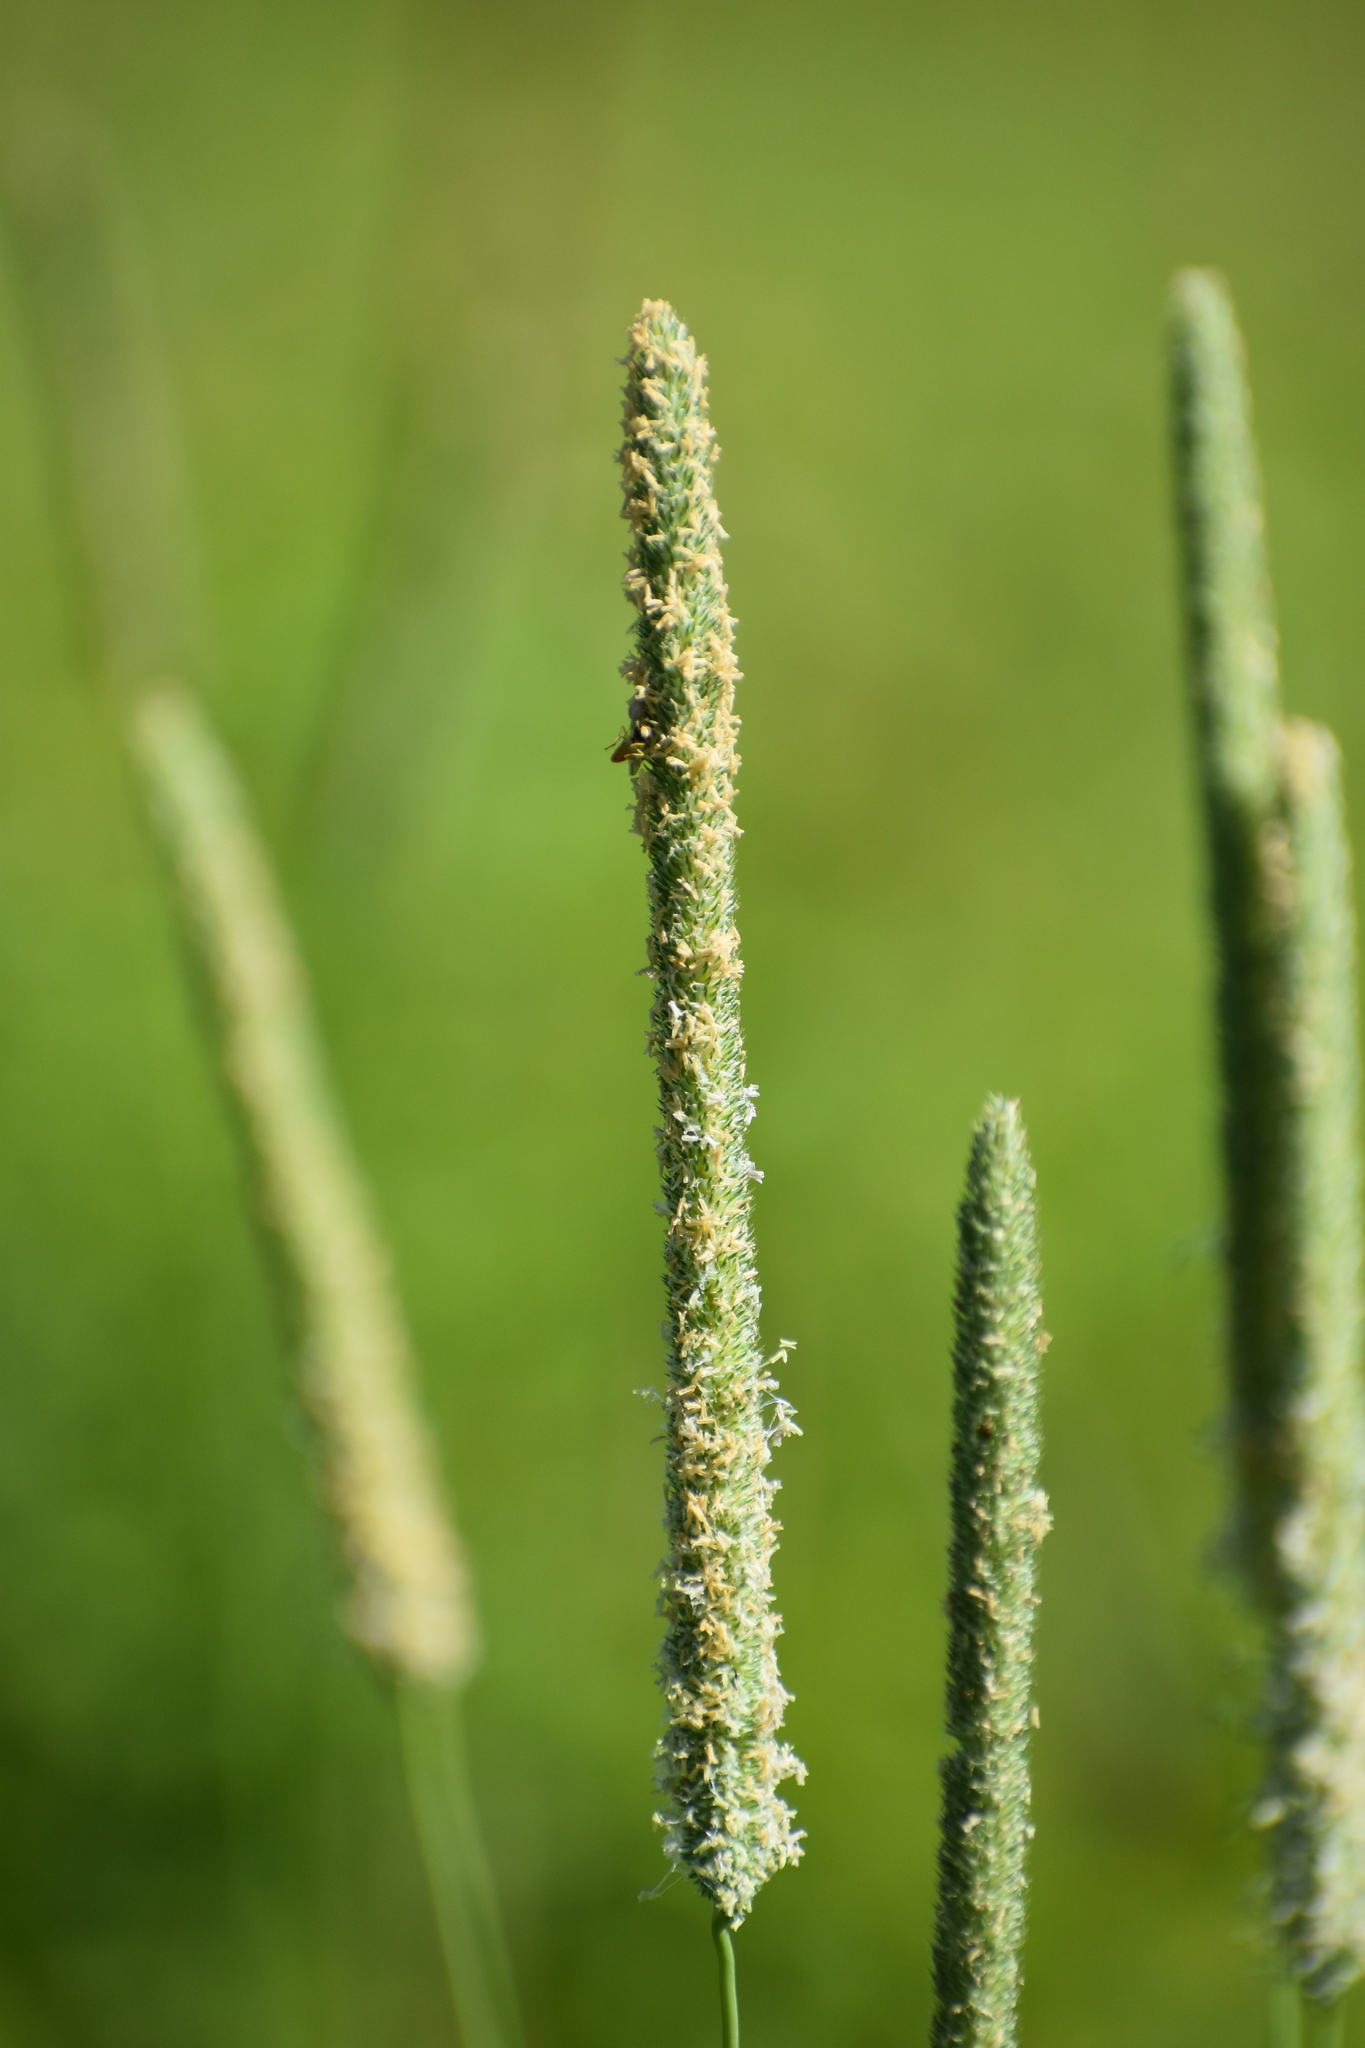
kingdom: Plantae
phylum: Tracheophyta
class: Liliopsida
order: Poales
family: Poaceae
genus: Phleum
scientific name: Phleum pratense
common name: Timothy grass
